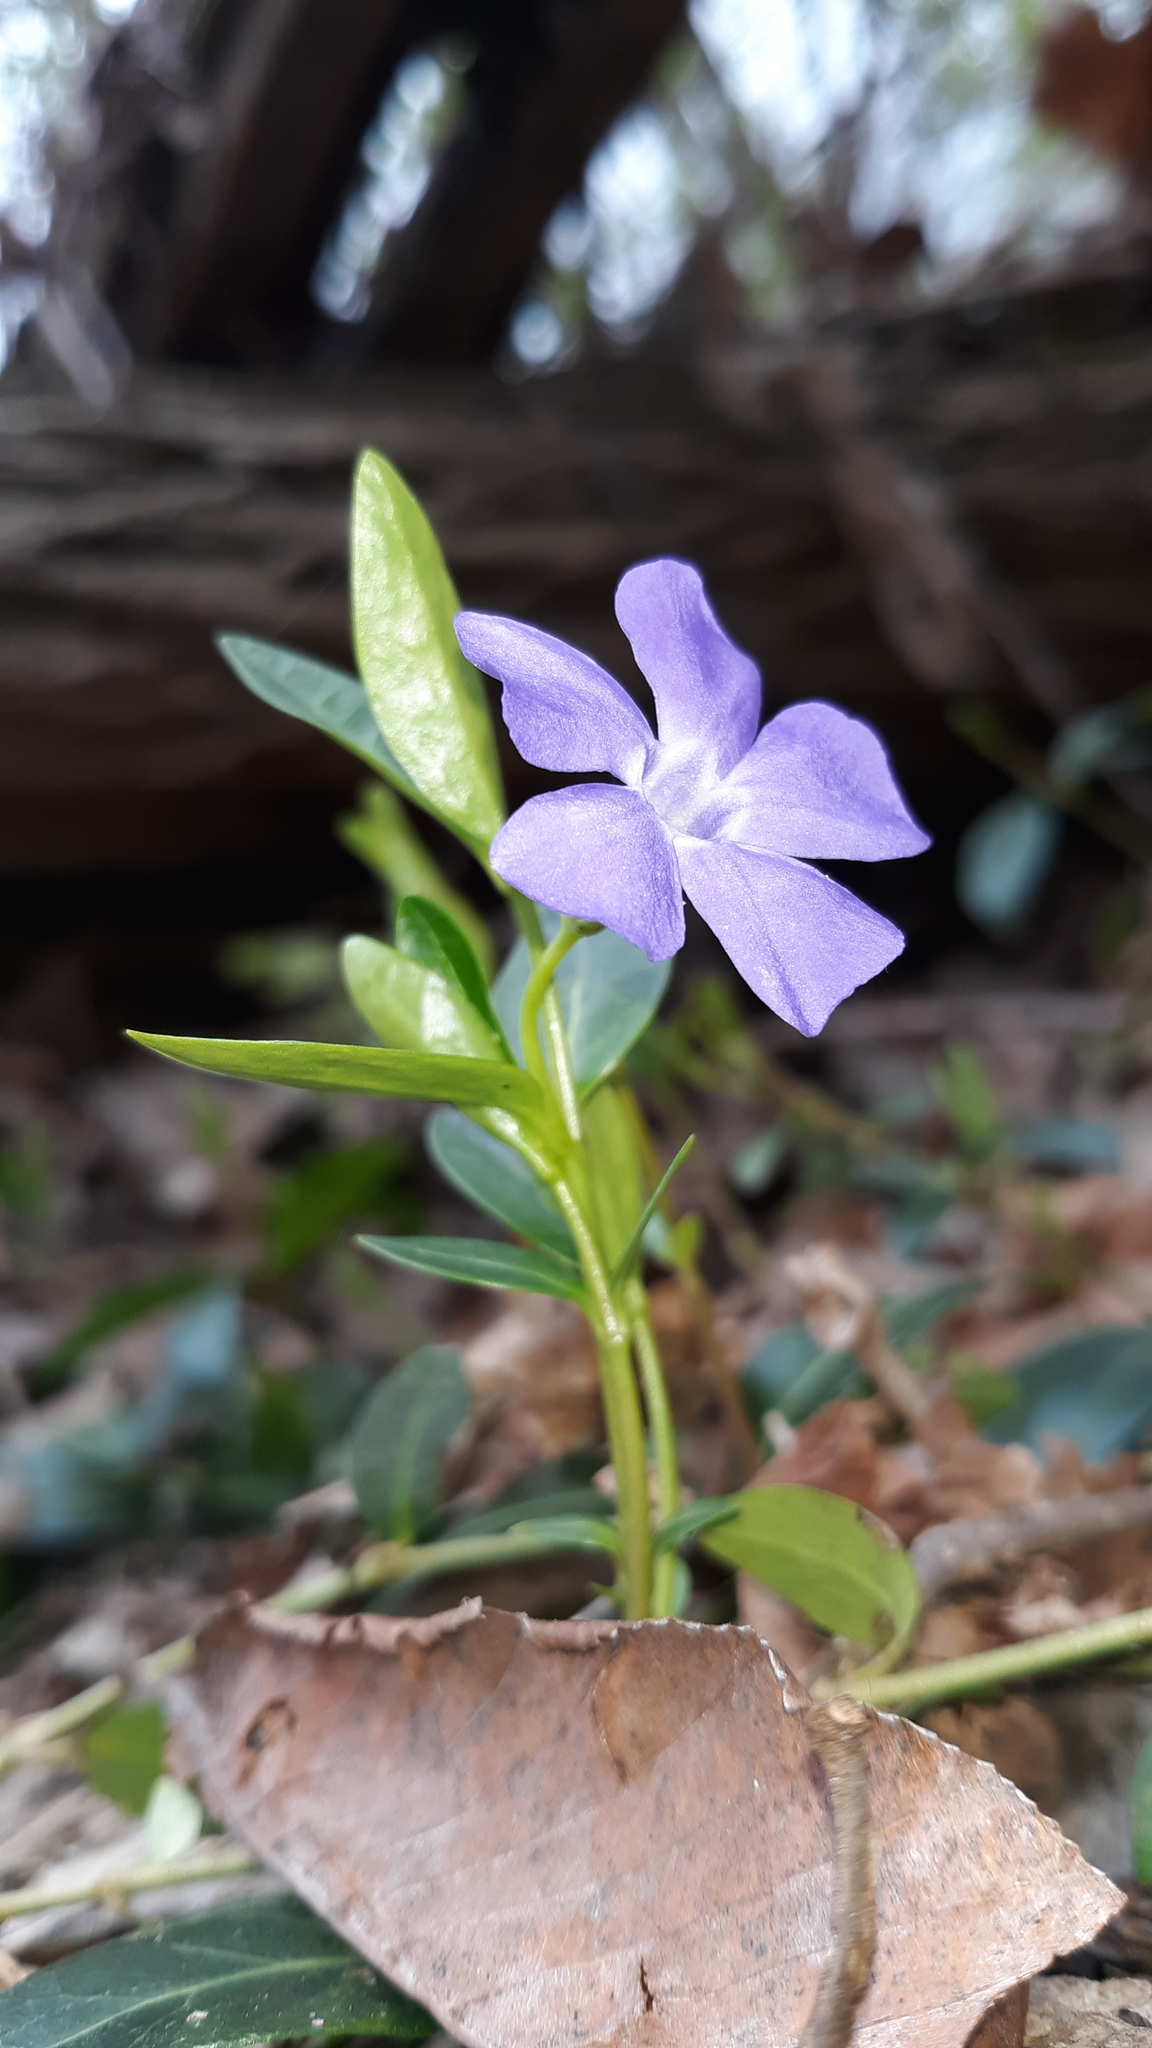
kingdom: Plantae
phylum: Tracheophyta
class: Magnoliopsida
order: Gentianales
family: Apocynaceae
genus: Vinca
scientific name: Vinca minor
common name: Lesser periwinkle
